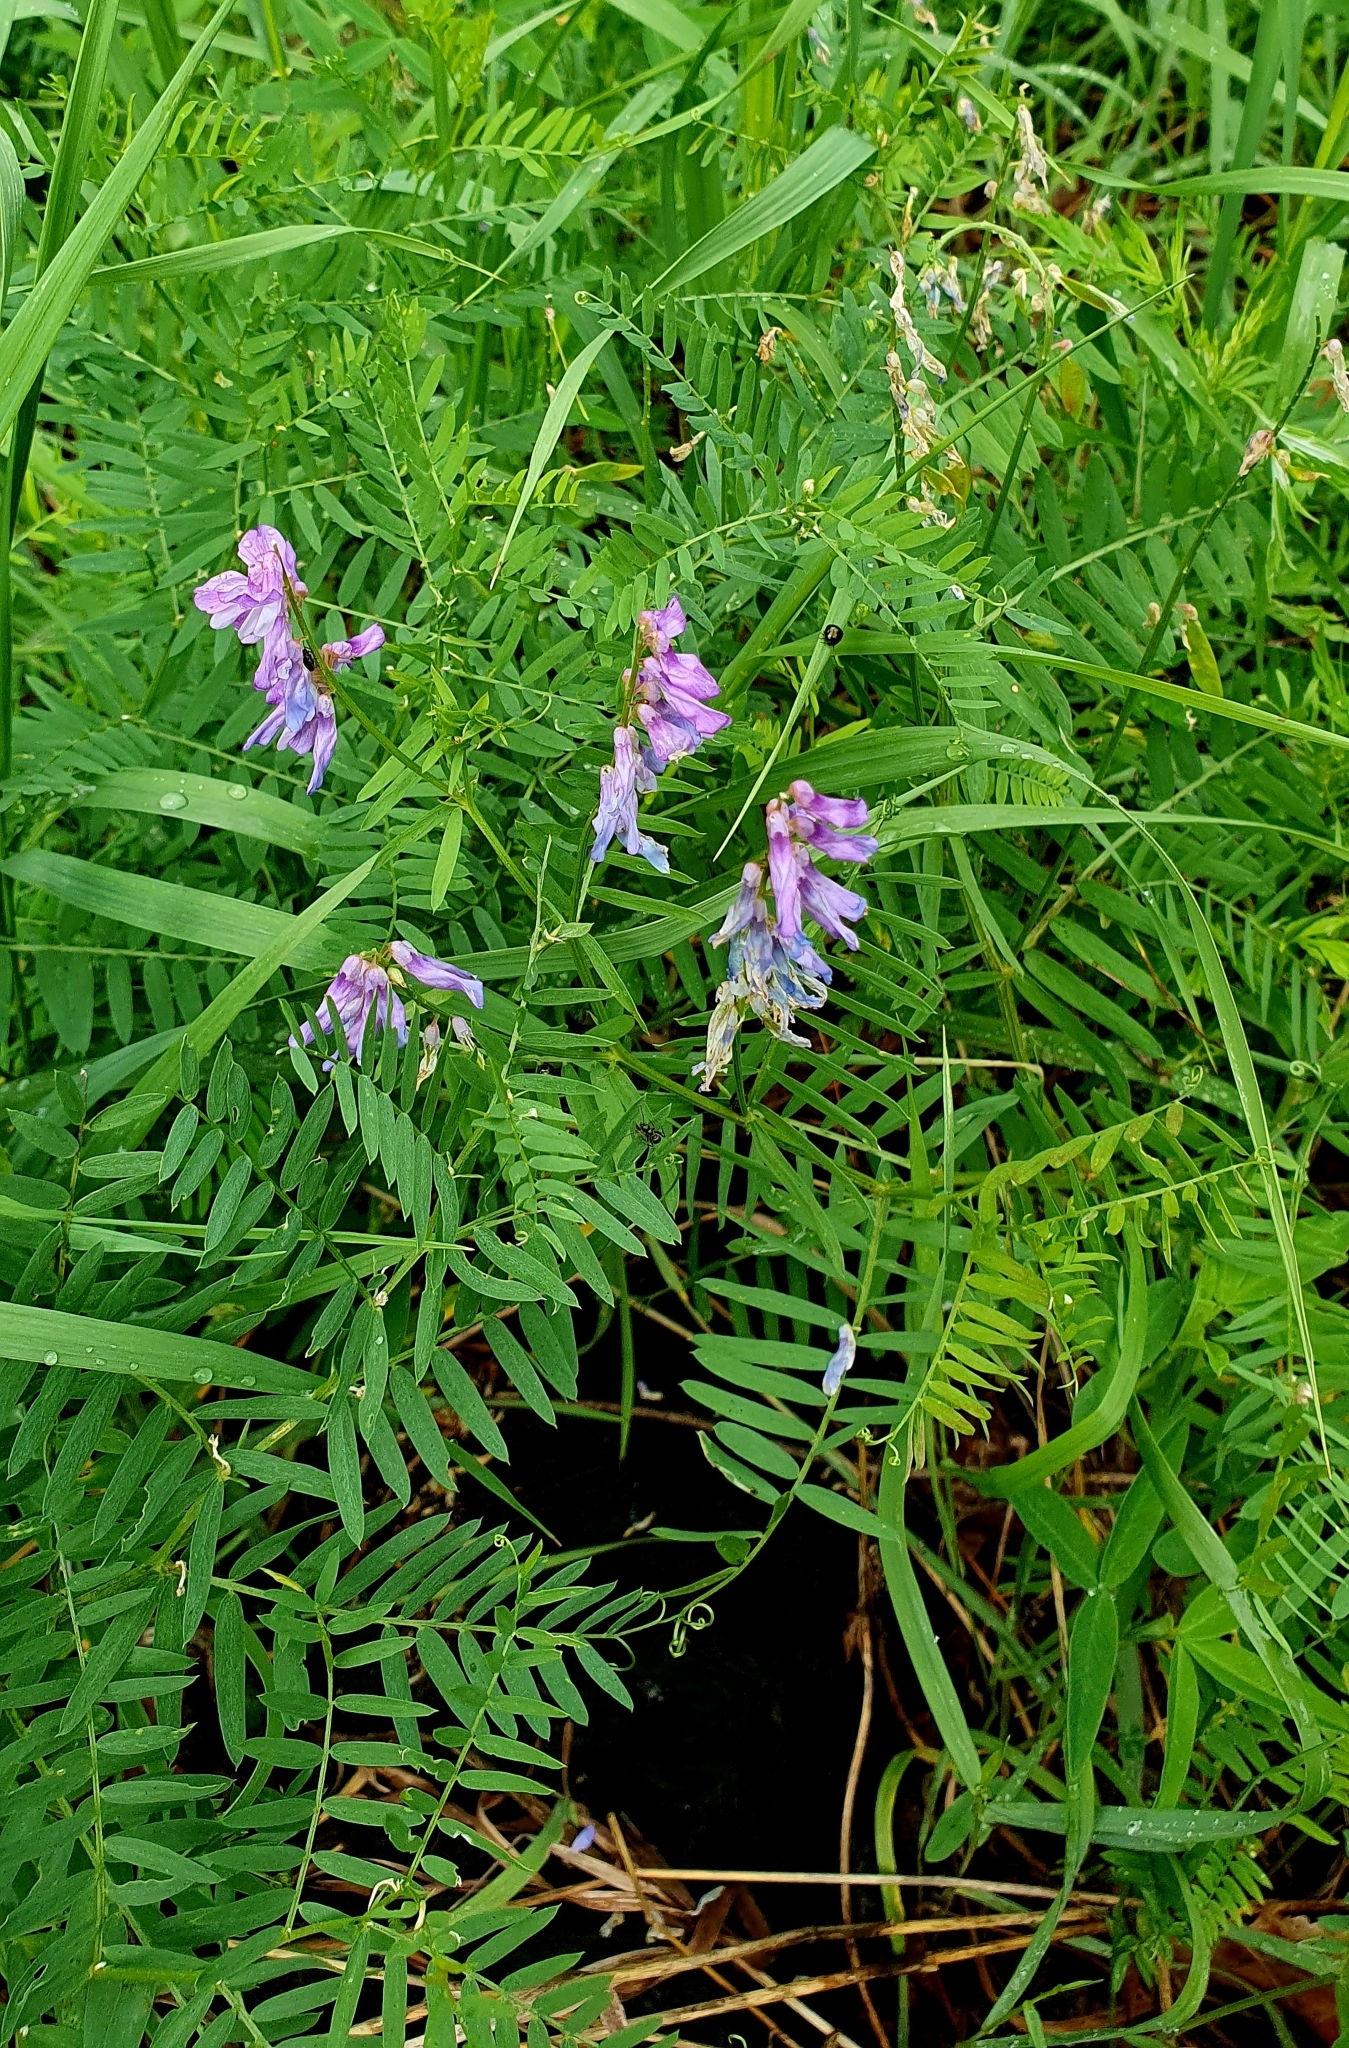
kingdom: Plantae
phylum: Tracheophyta
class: Magnoliopsida
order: Fabales
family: Fabaceae
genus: Vicia
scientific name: Vicia cracca
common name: Bird vetch
